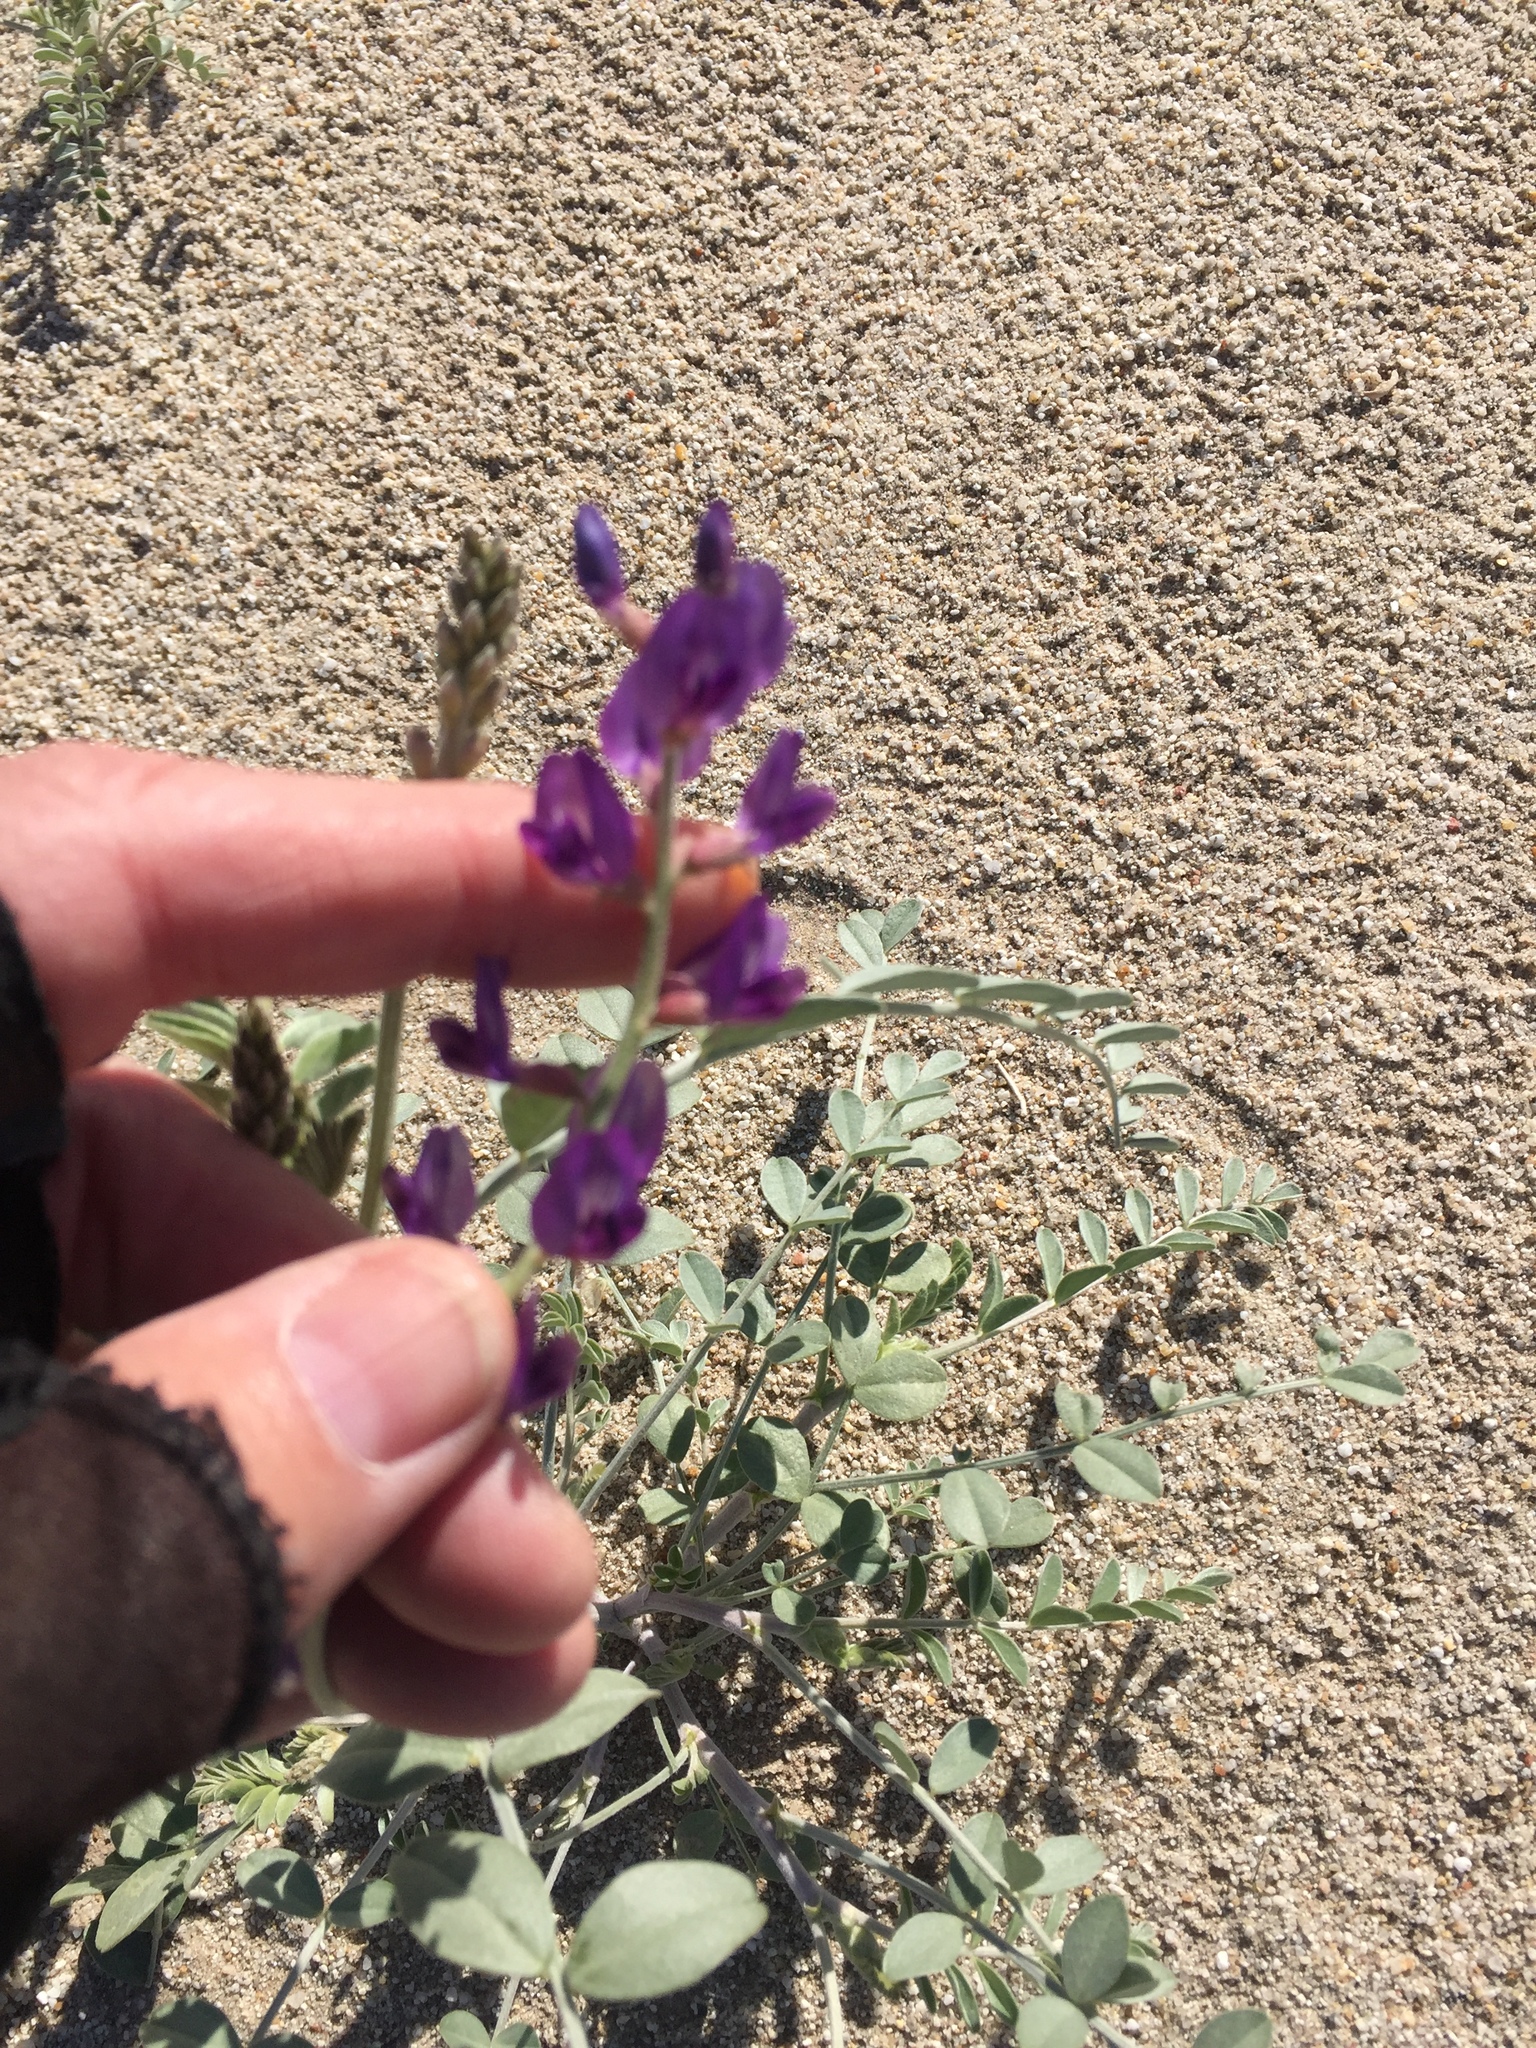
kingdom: Plantae
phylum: Tracheophyta
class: Magnoliopsida
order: Fabales
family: Fabaceae
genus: Astragalus
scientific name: Astragalus lentiginosus
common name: Freckled milkvetch
